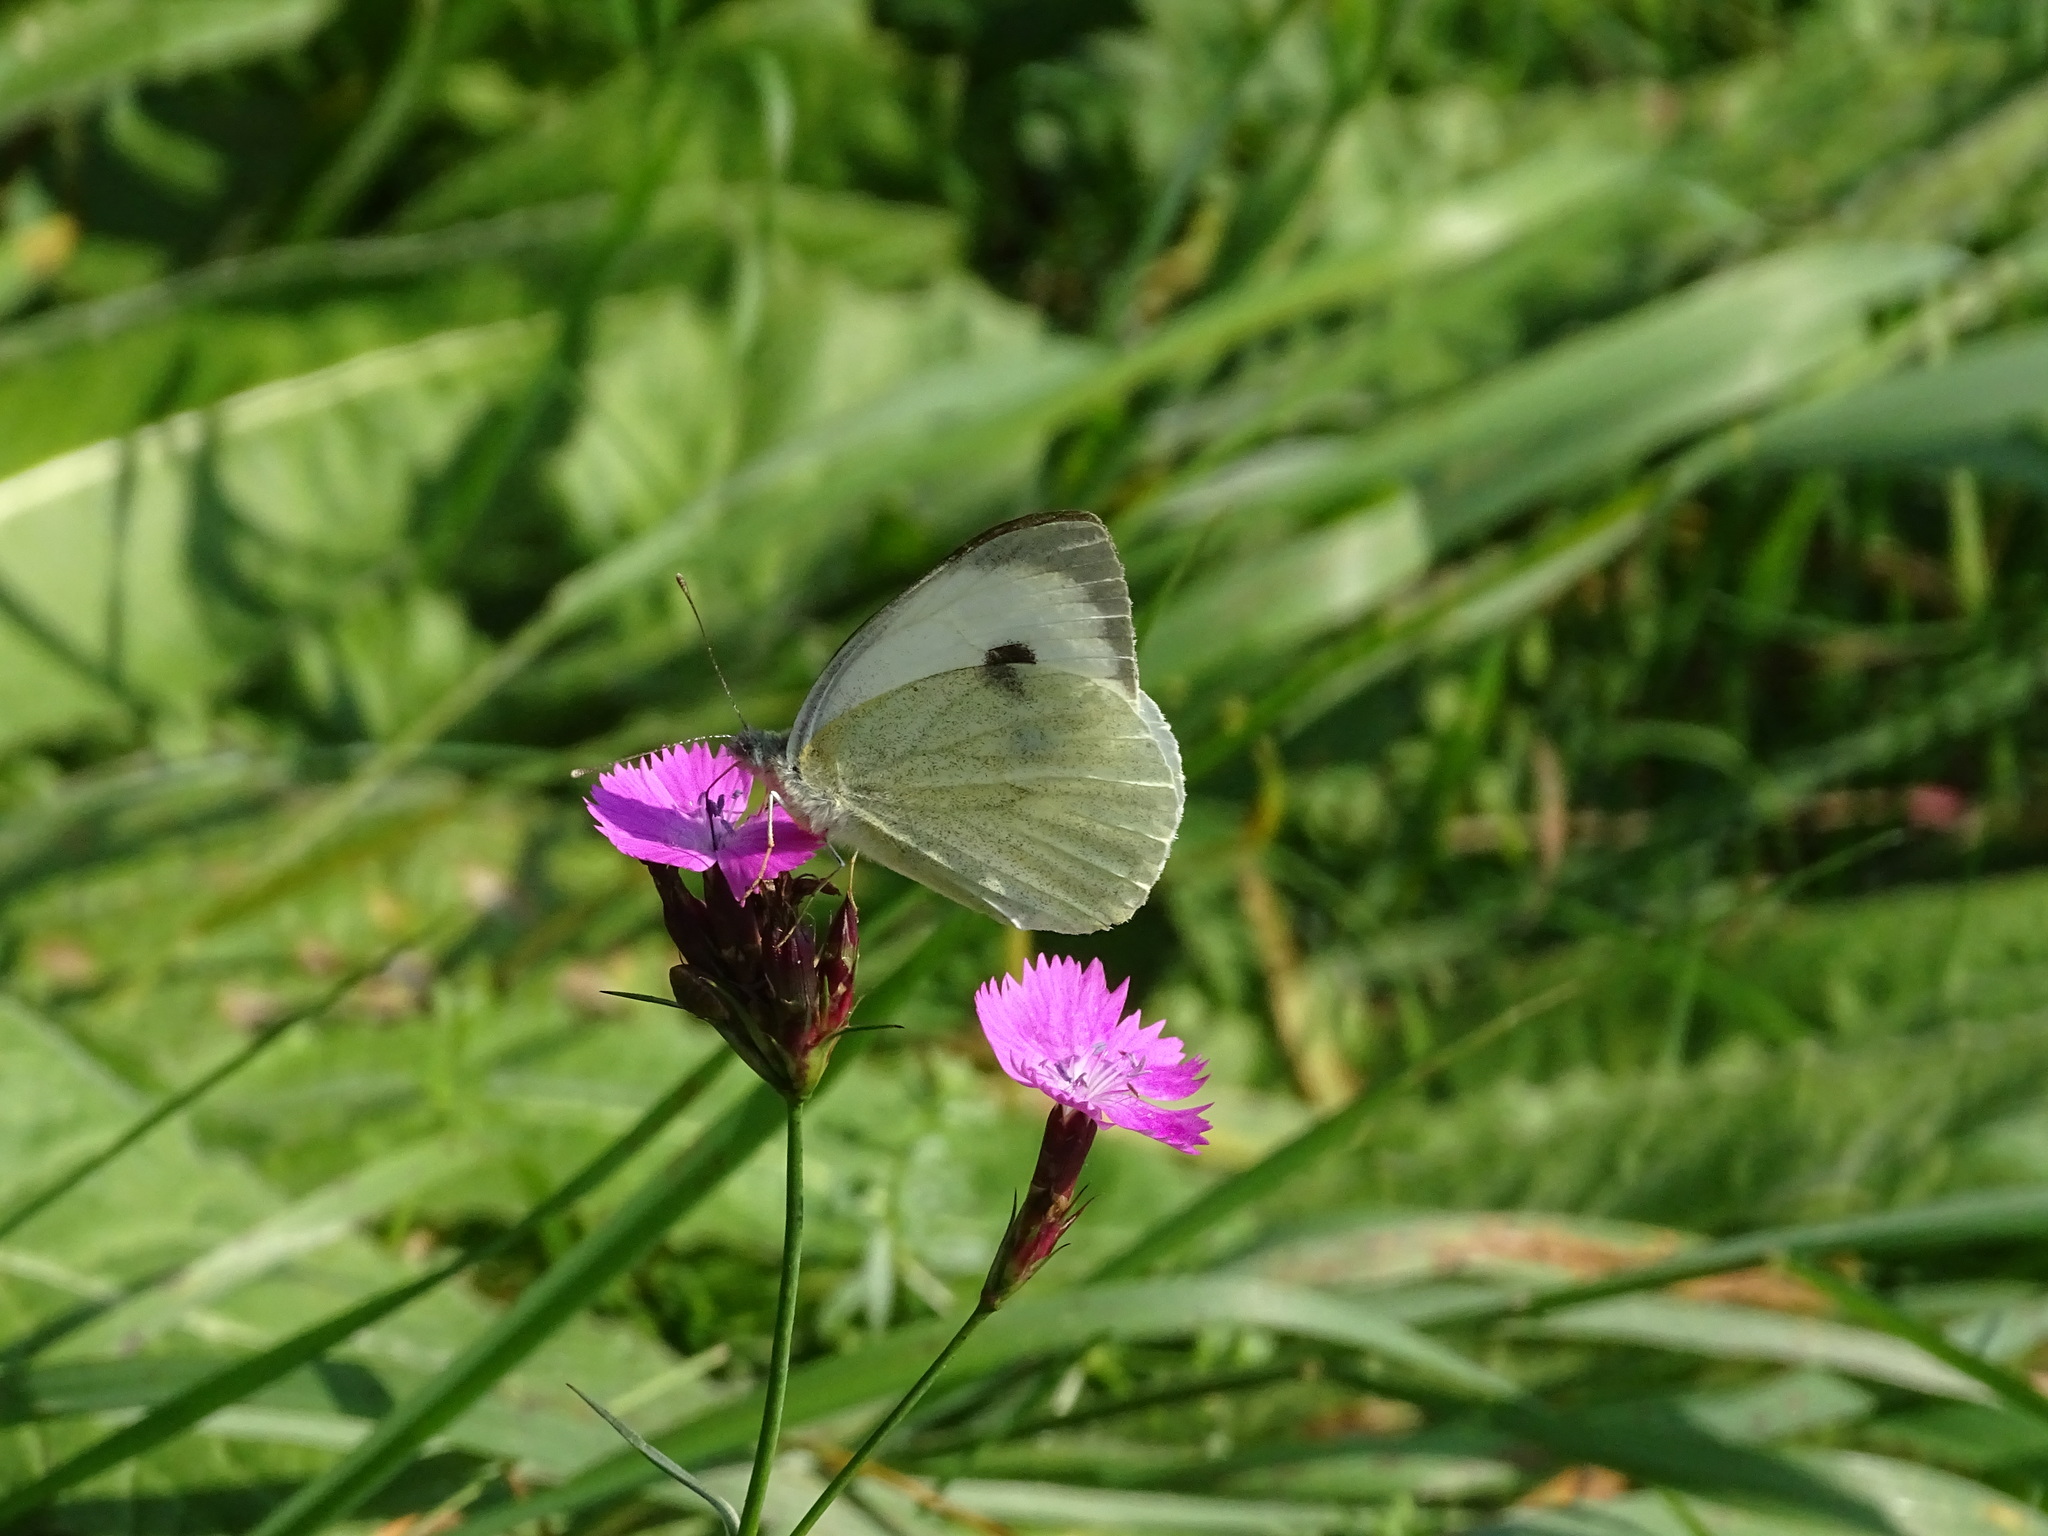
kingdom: Animalia
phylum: Arthropoda
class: Insecta
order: Lepidoptera
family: Pieridae
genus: Pieris
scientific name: Pieris brassicae
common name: Large white
